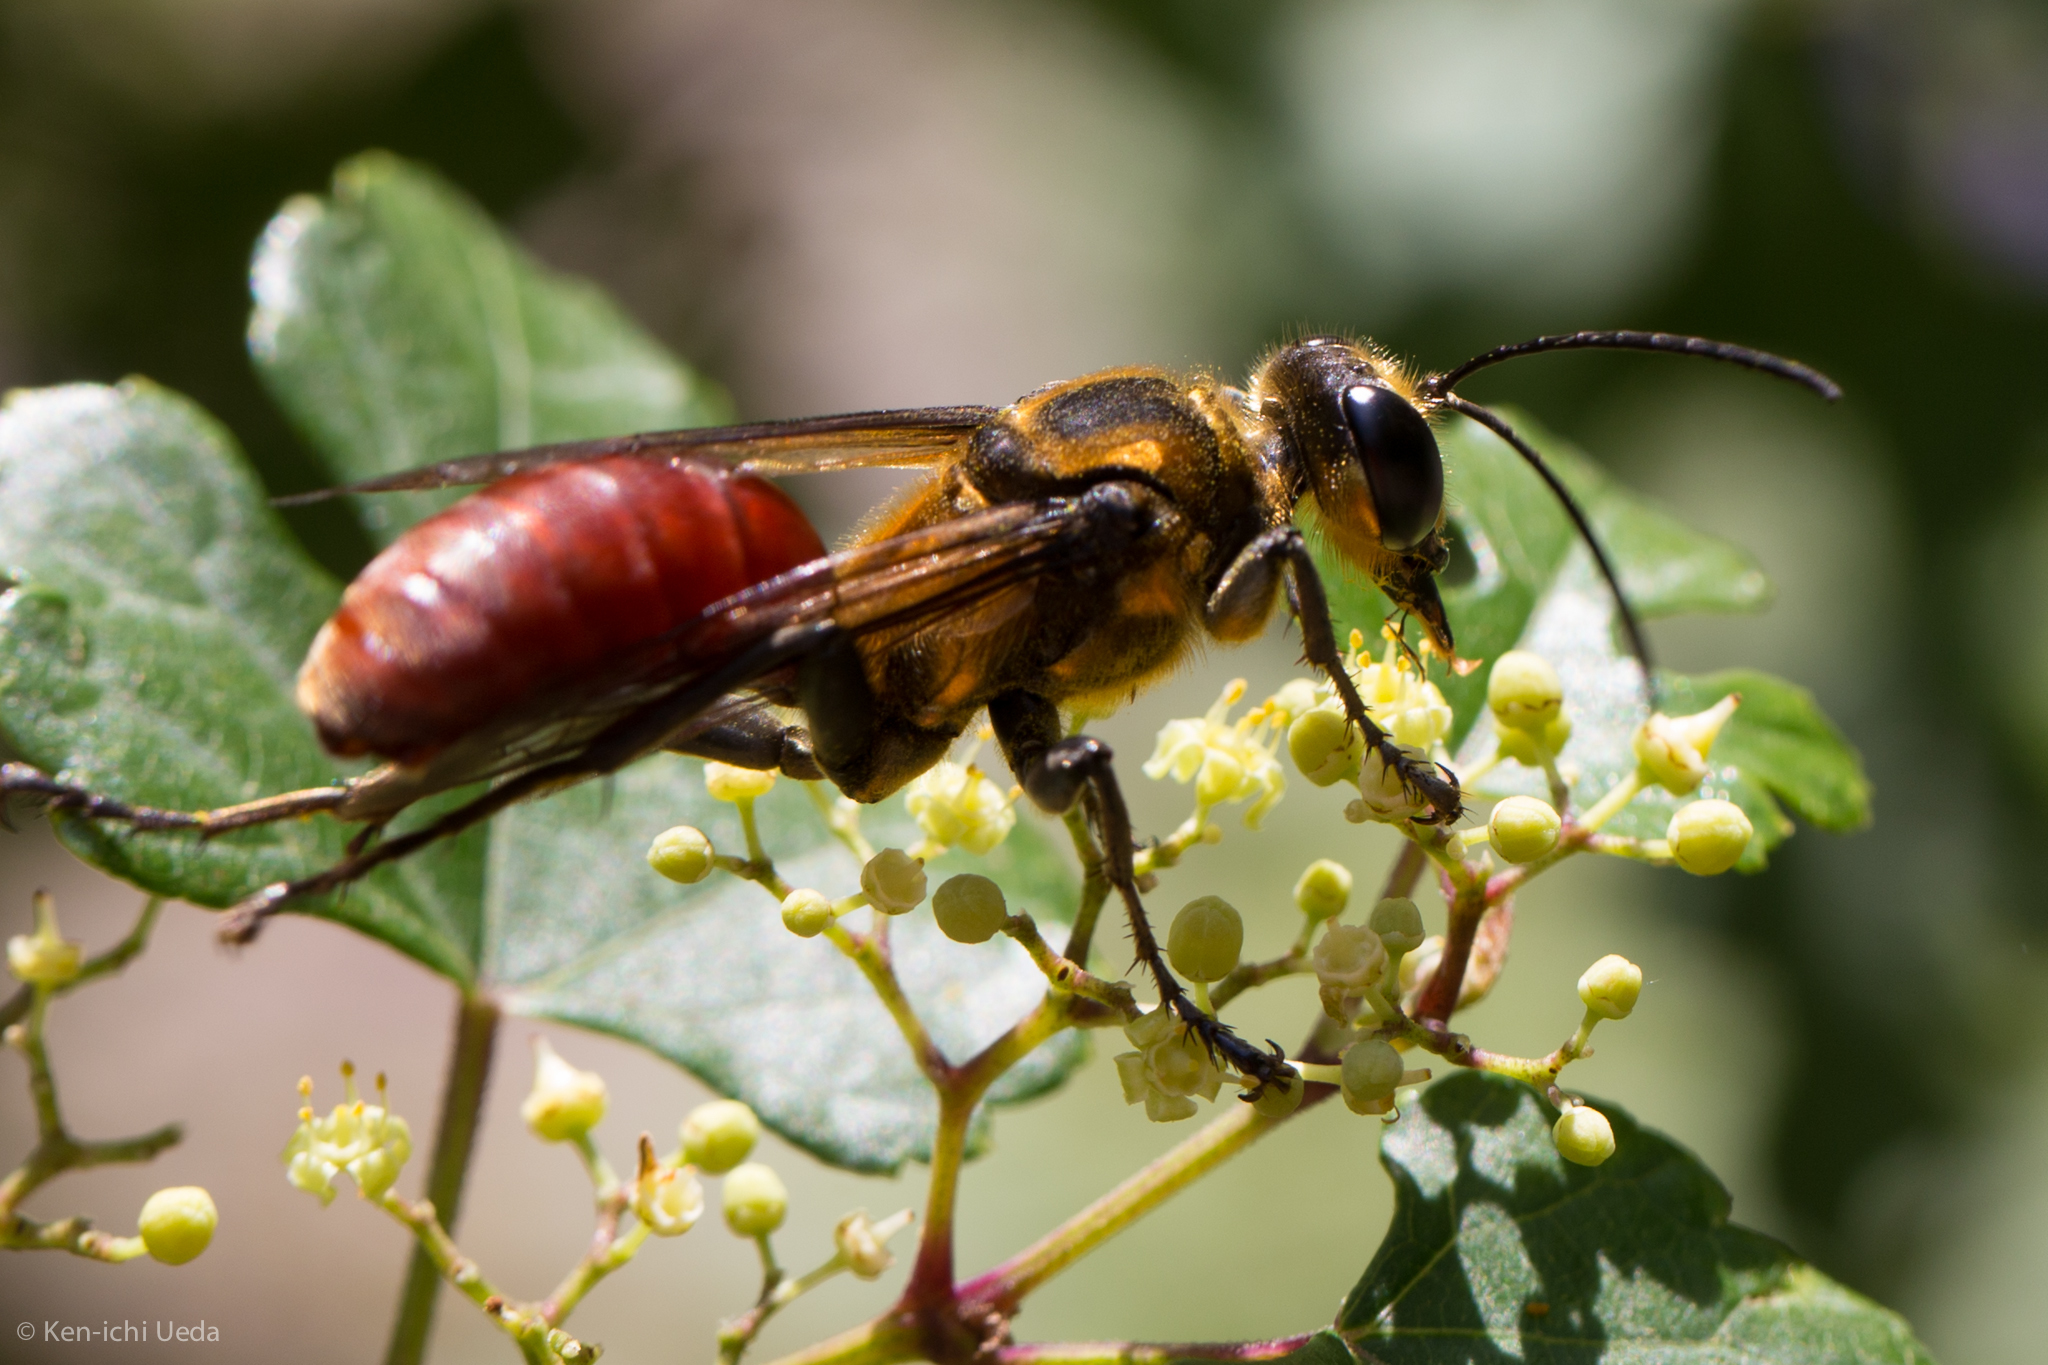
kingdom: Animalia
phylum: Arthropoda
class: Insecta
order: Hymenoptera
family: Sphecidae
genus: Sphex
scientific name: Sphex habenus
